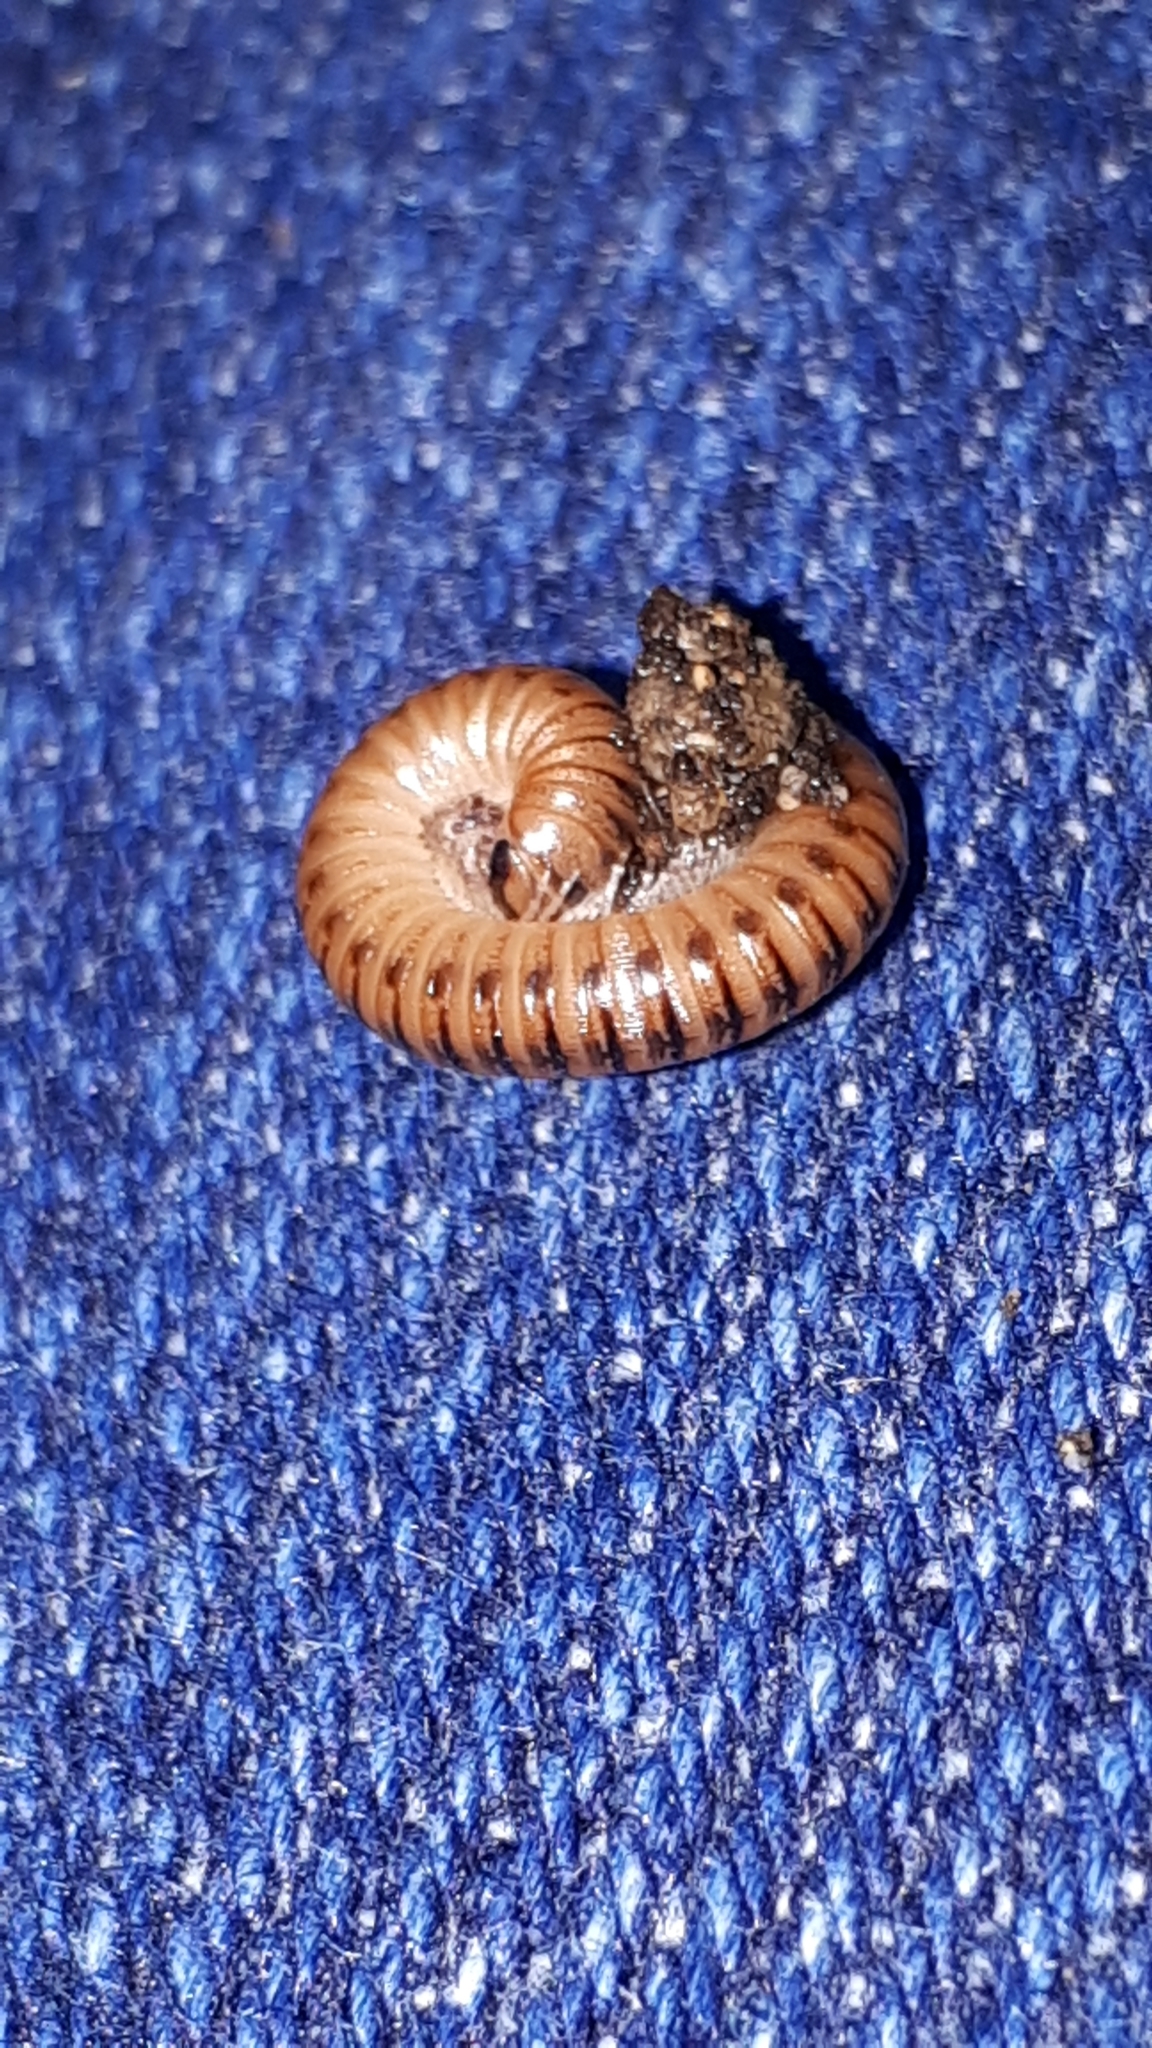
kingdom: Animalia
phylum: Arthropoda
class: Diplopoda
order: Julida
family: Julidae
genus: Cylindroiulus
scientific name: Cylindroiulus punctatus
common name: Blunt-tailed millipede
